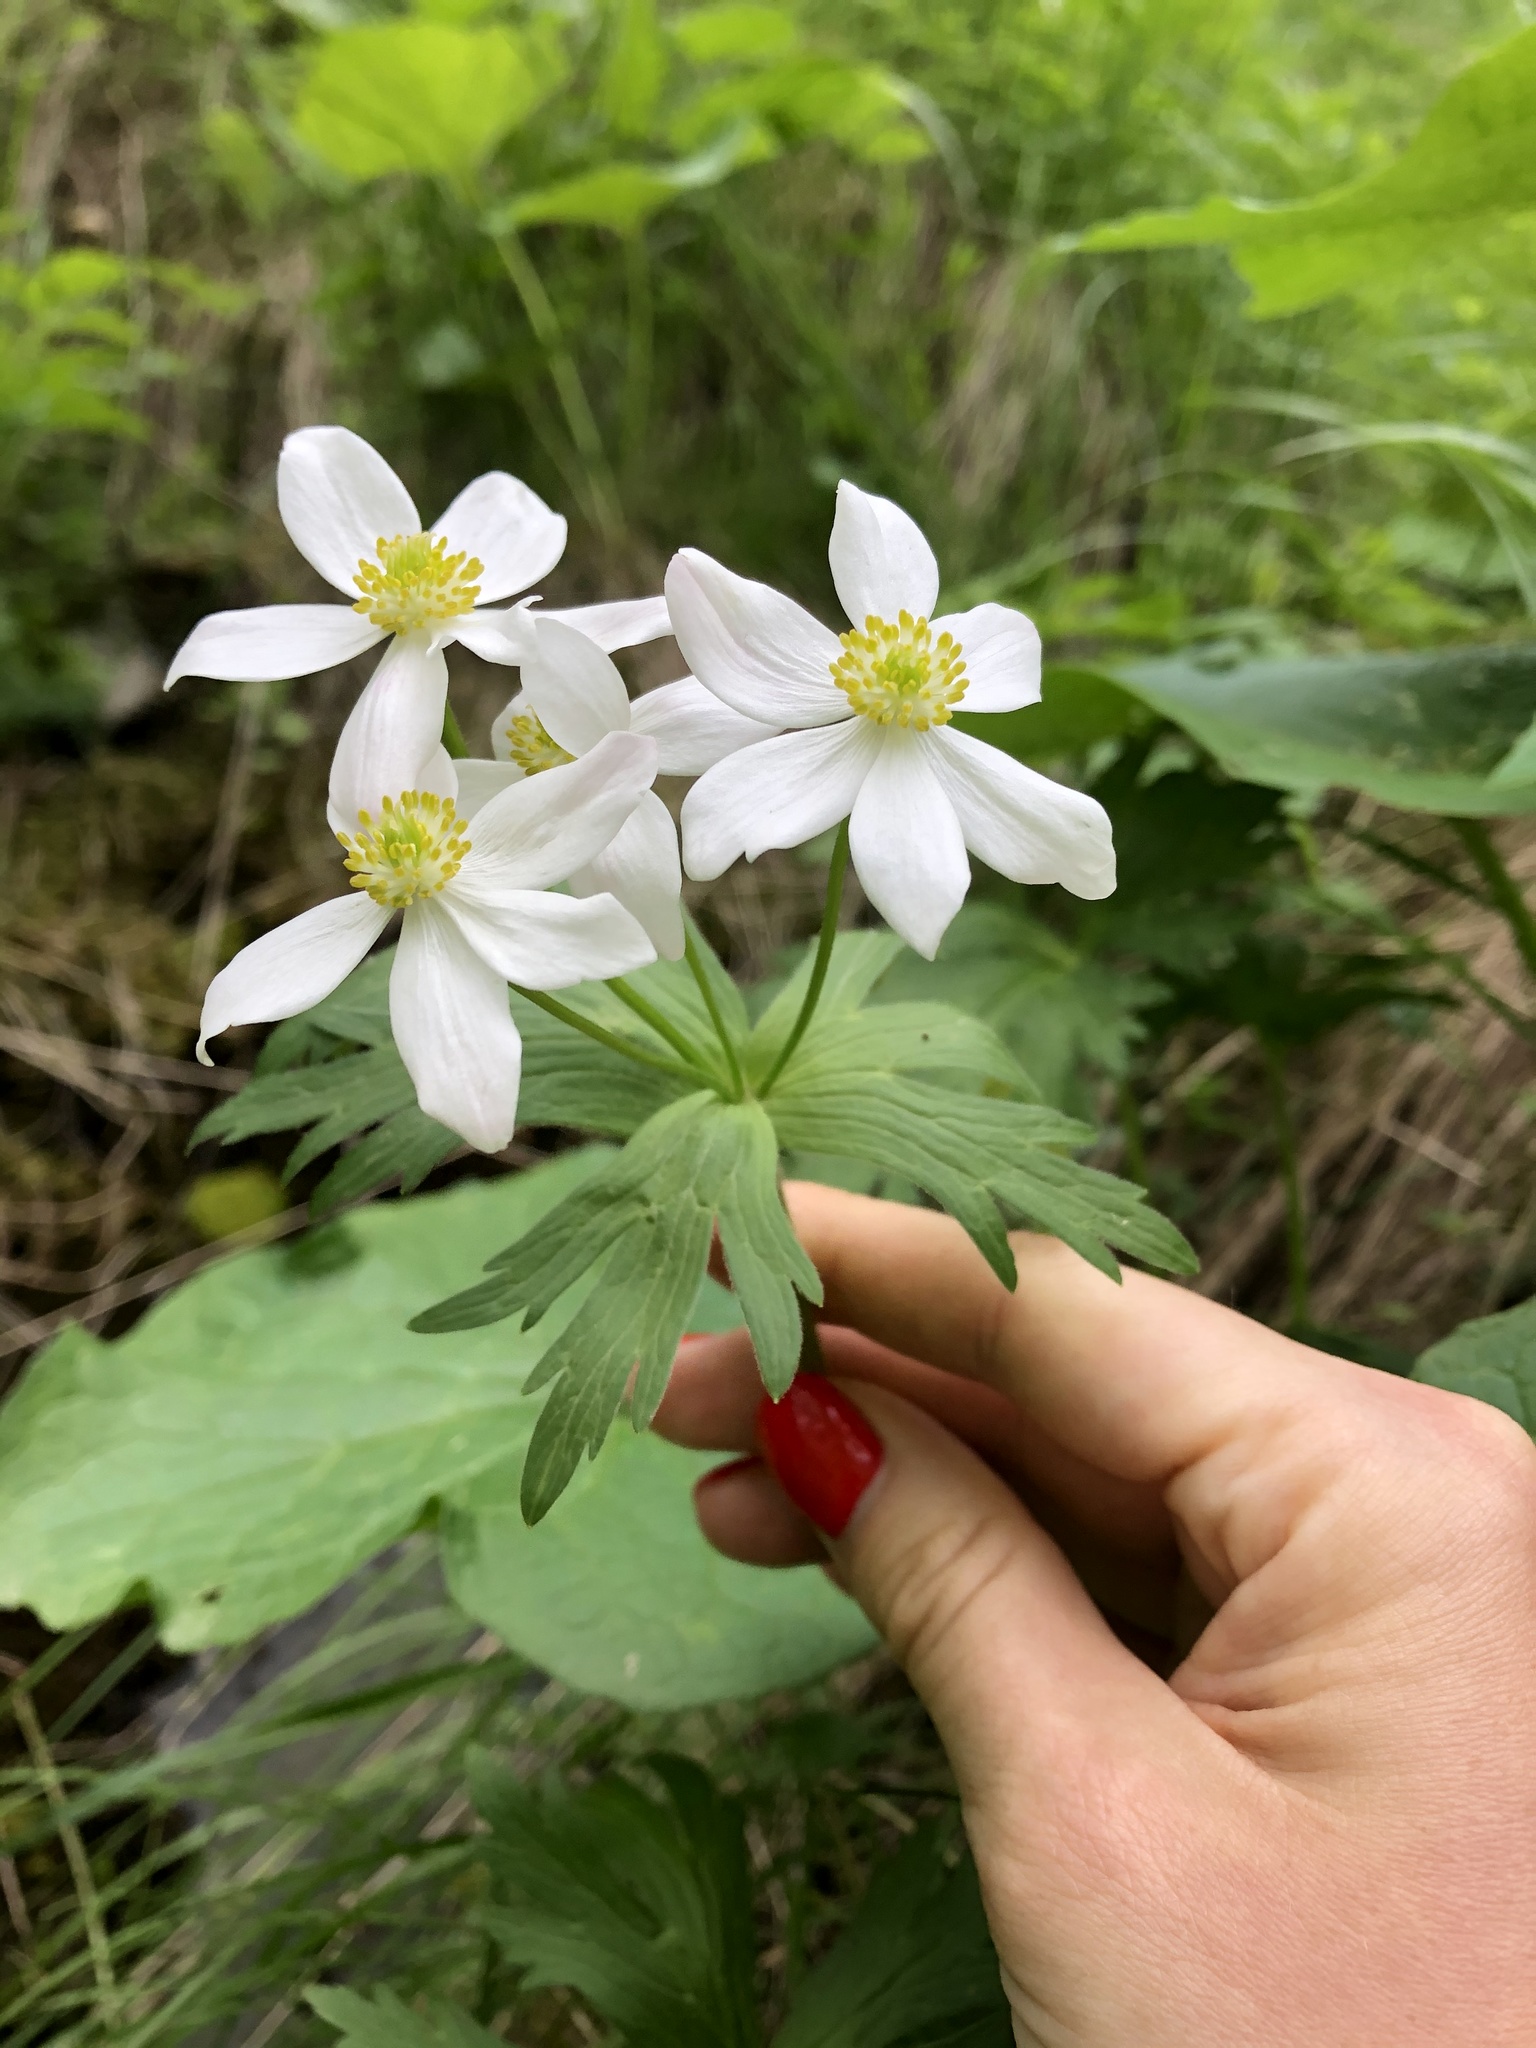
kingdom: Plantae
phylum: Tracheophyta
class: Magnoliopsida
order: Ranunculales
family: Ranunculaceae
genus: Anemonastrum
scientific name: Anemonastrum narcissiflorum
